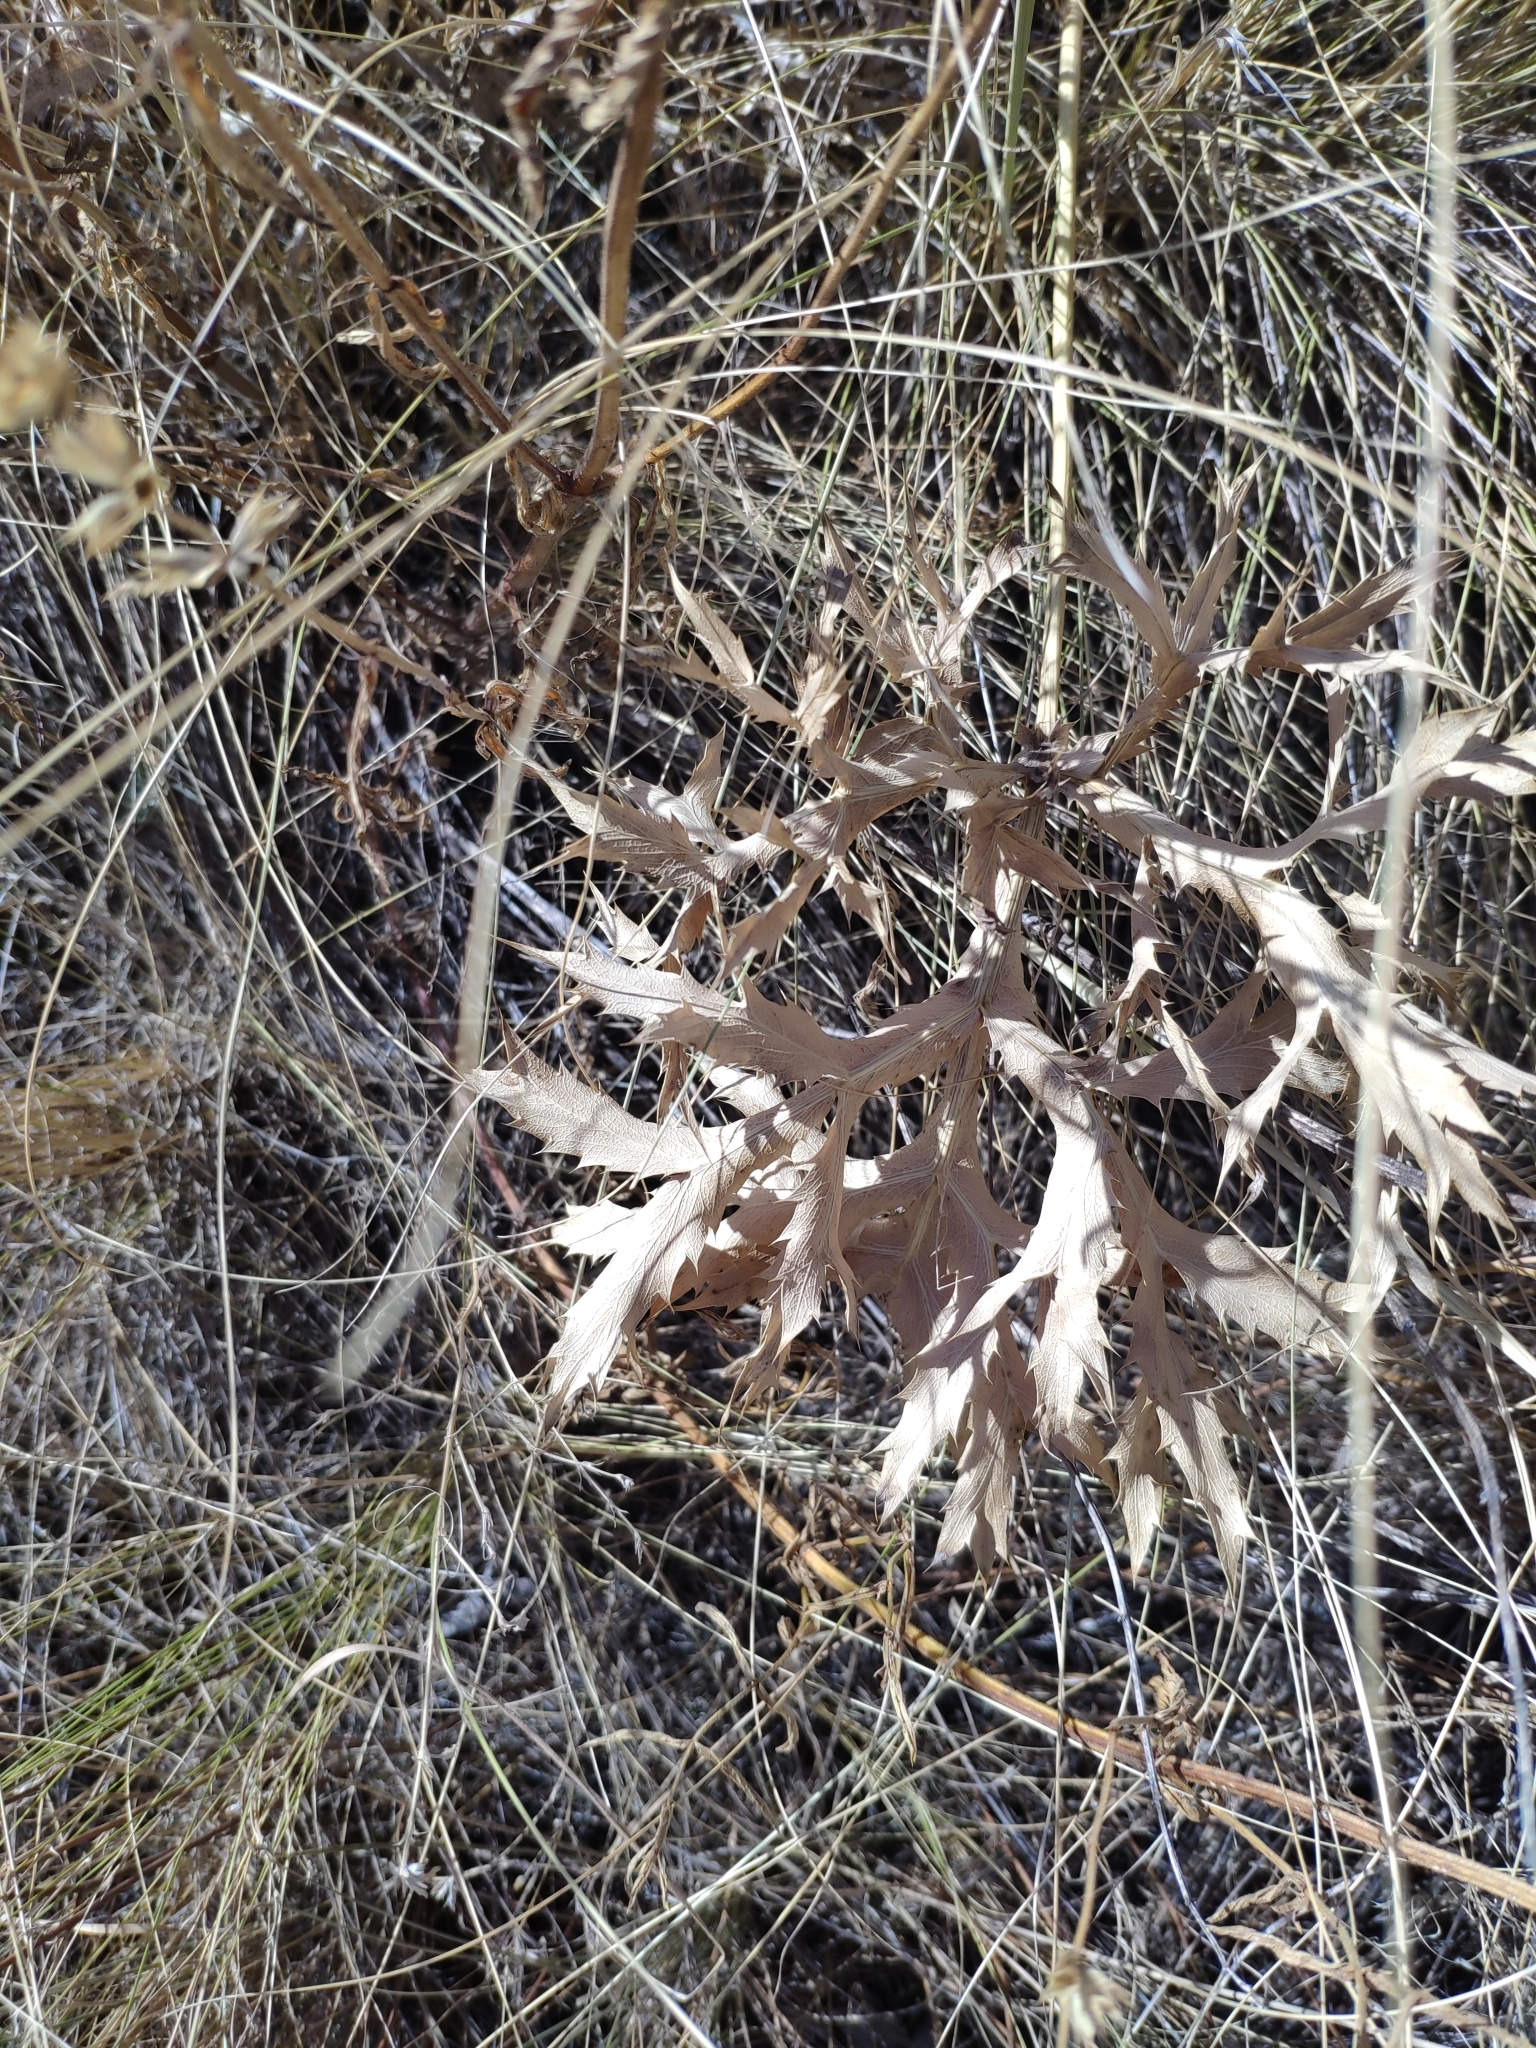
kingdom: Plantae
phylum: Tracheophyta
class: Magnoliopsida
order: Apiales
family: Apiaceae
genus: Eryngium
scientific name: Eryngium campestre
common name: Field eryngo
